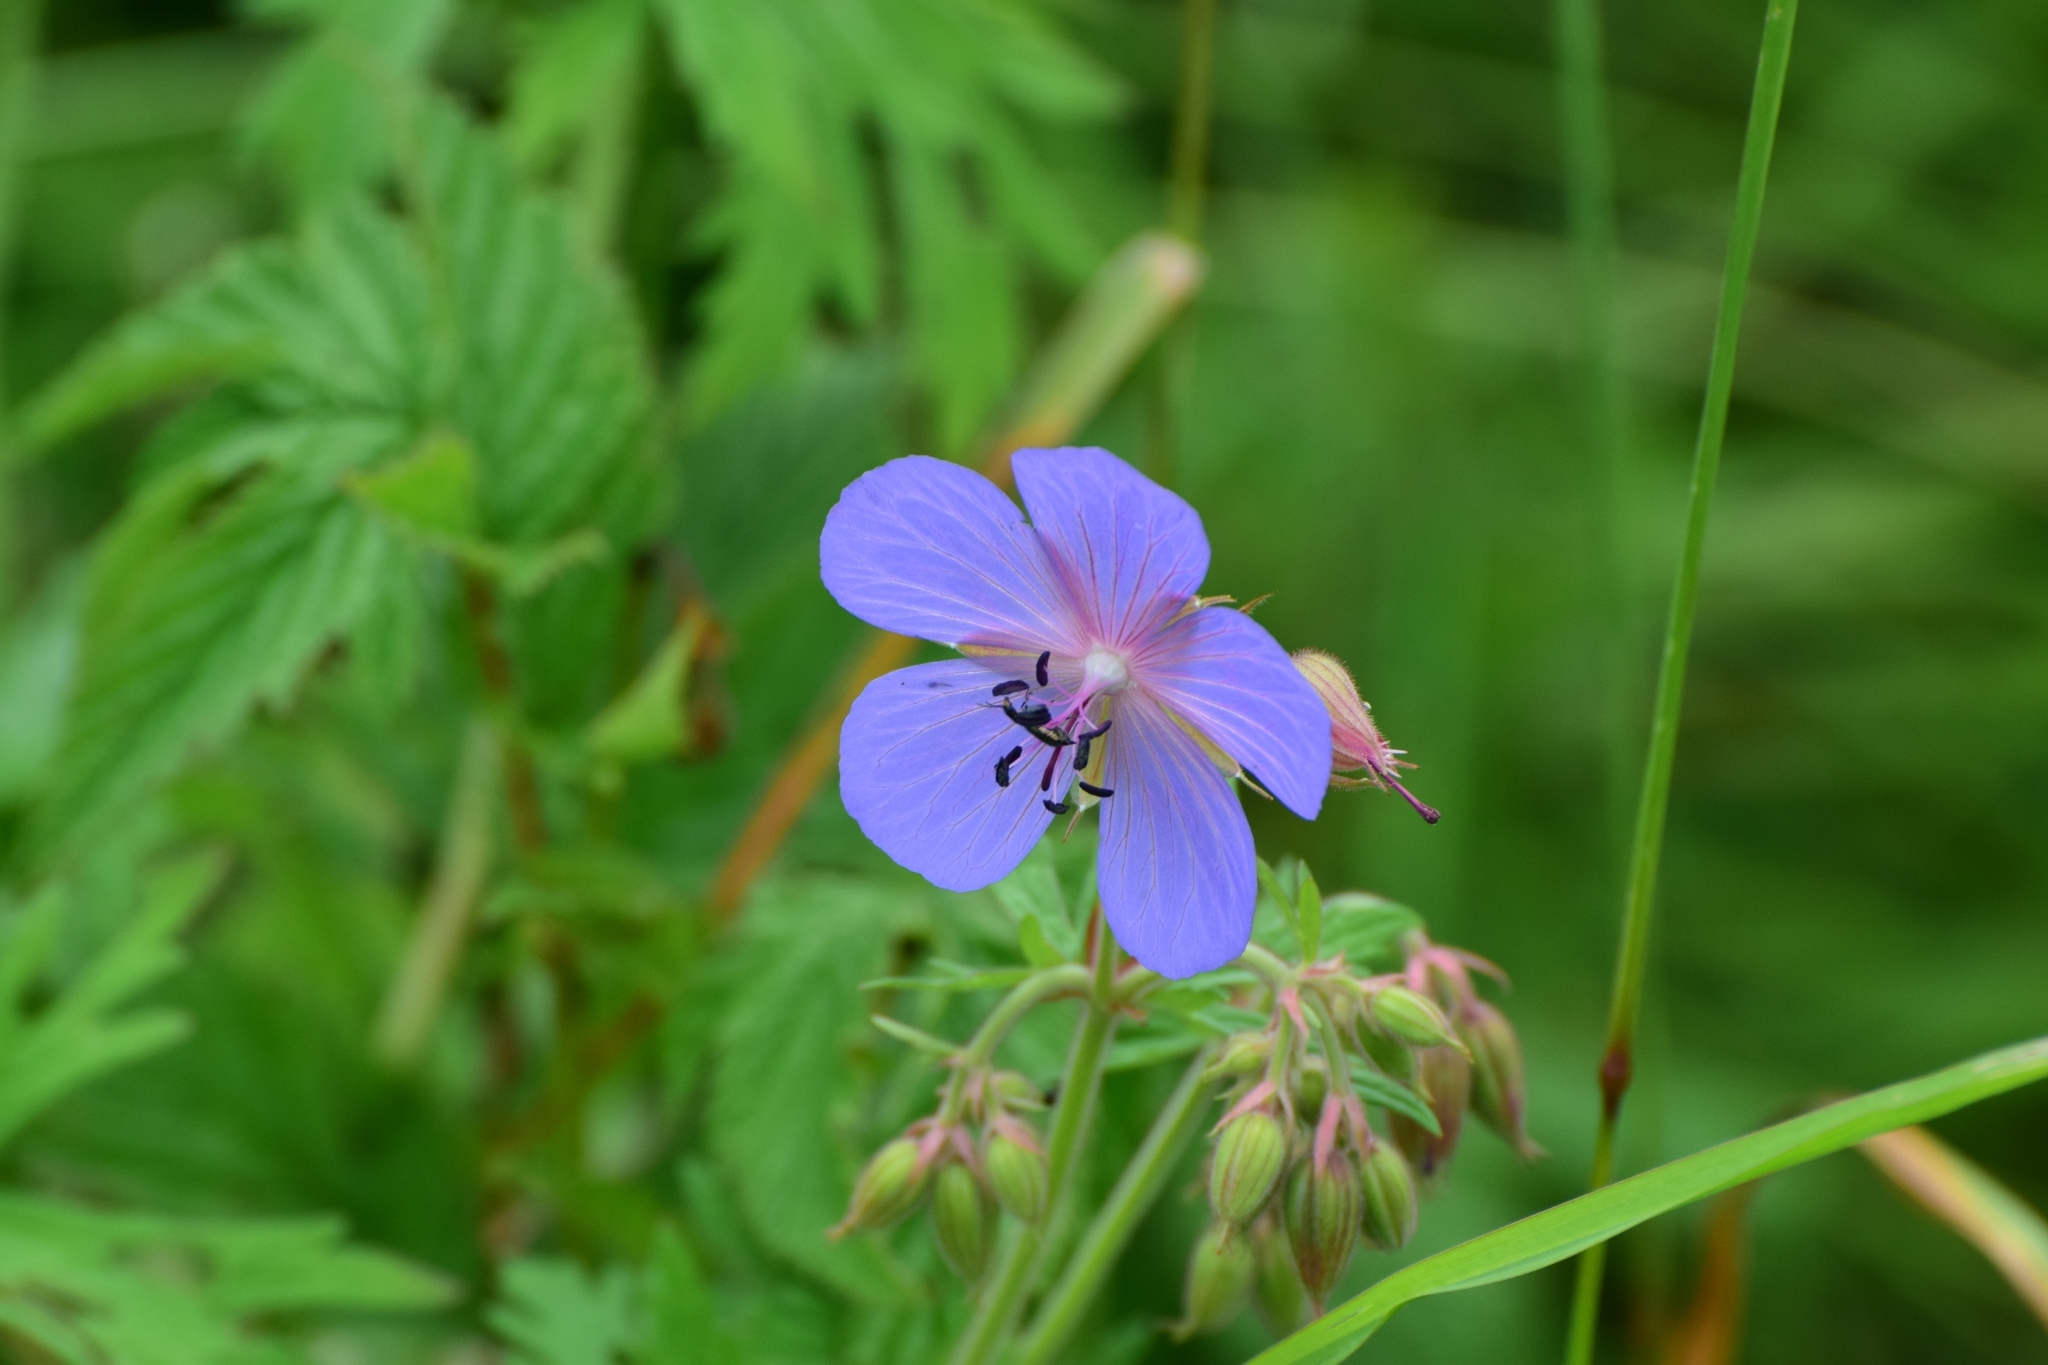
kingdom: Plantae
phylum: Tracheophyta
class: Magnoliopsida
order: Geraniales
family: Geraniaceae
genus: Geranium
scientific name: Geranium pratense
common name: Meadow crane's-bill
